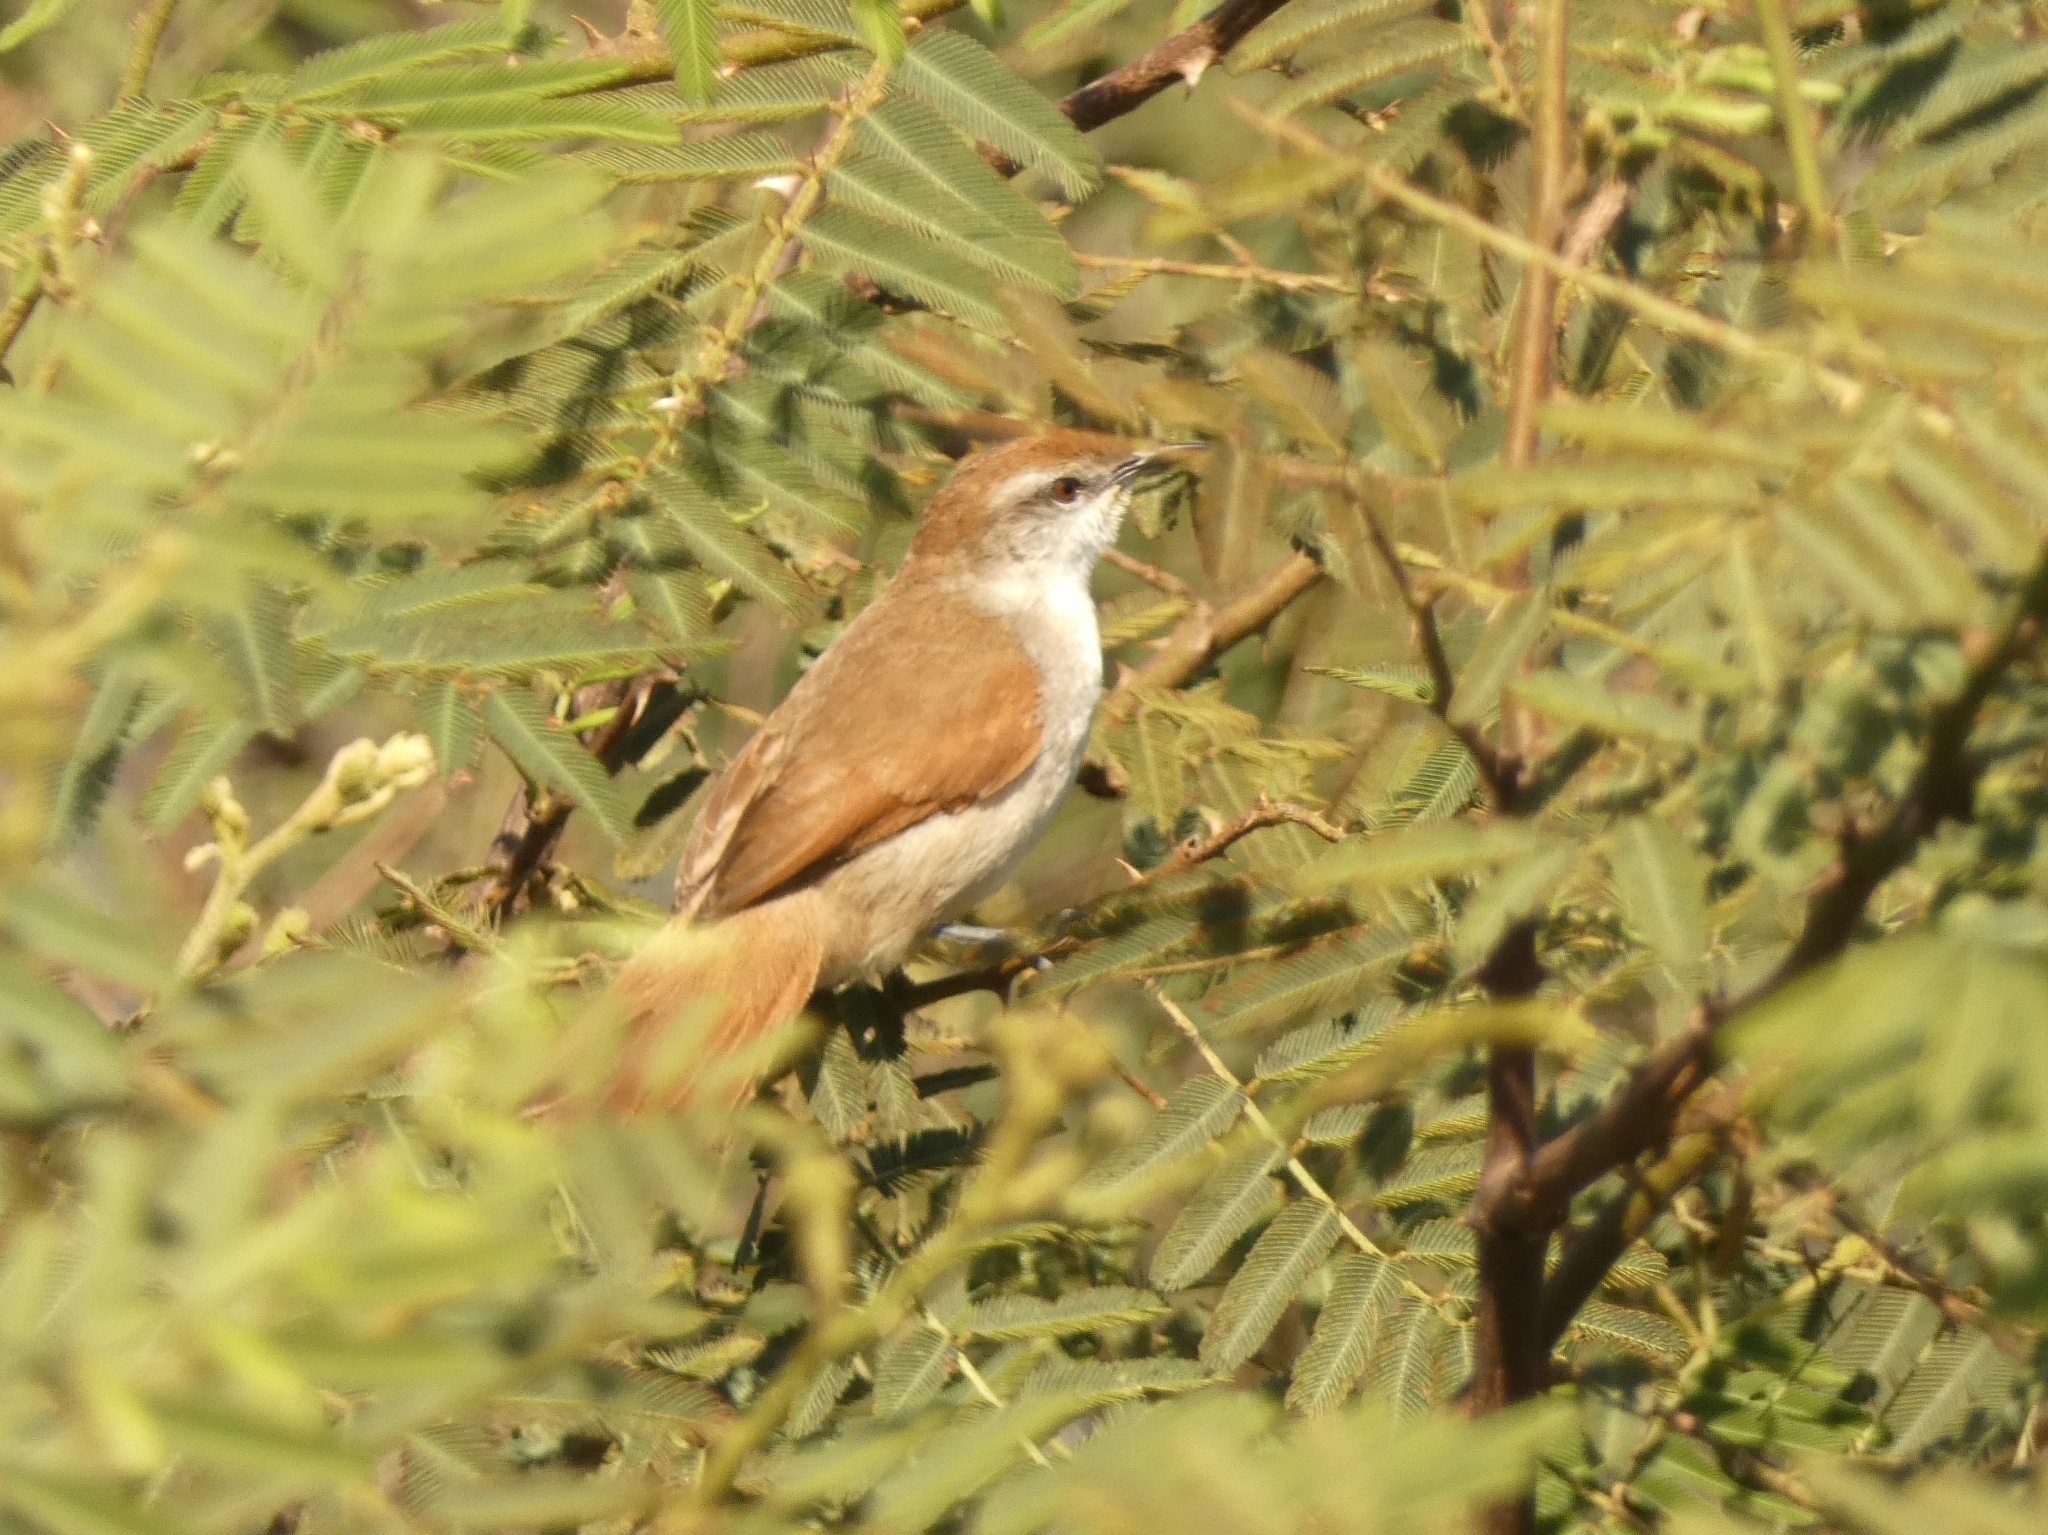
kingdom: Animalia
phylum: Chordata
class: Aves
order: Passeriformes
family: Furnariidae
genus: Certhiaxis
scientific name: Certhiaxis cinnamomeus
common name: Yellow-chinned spinetail
